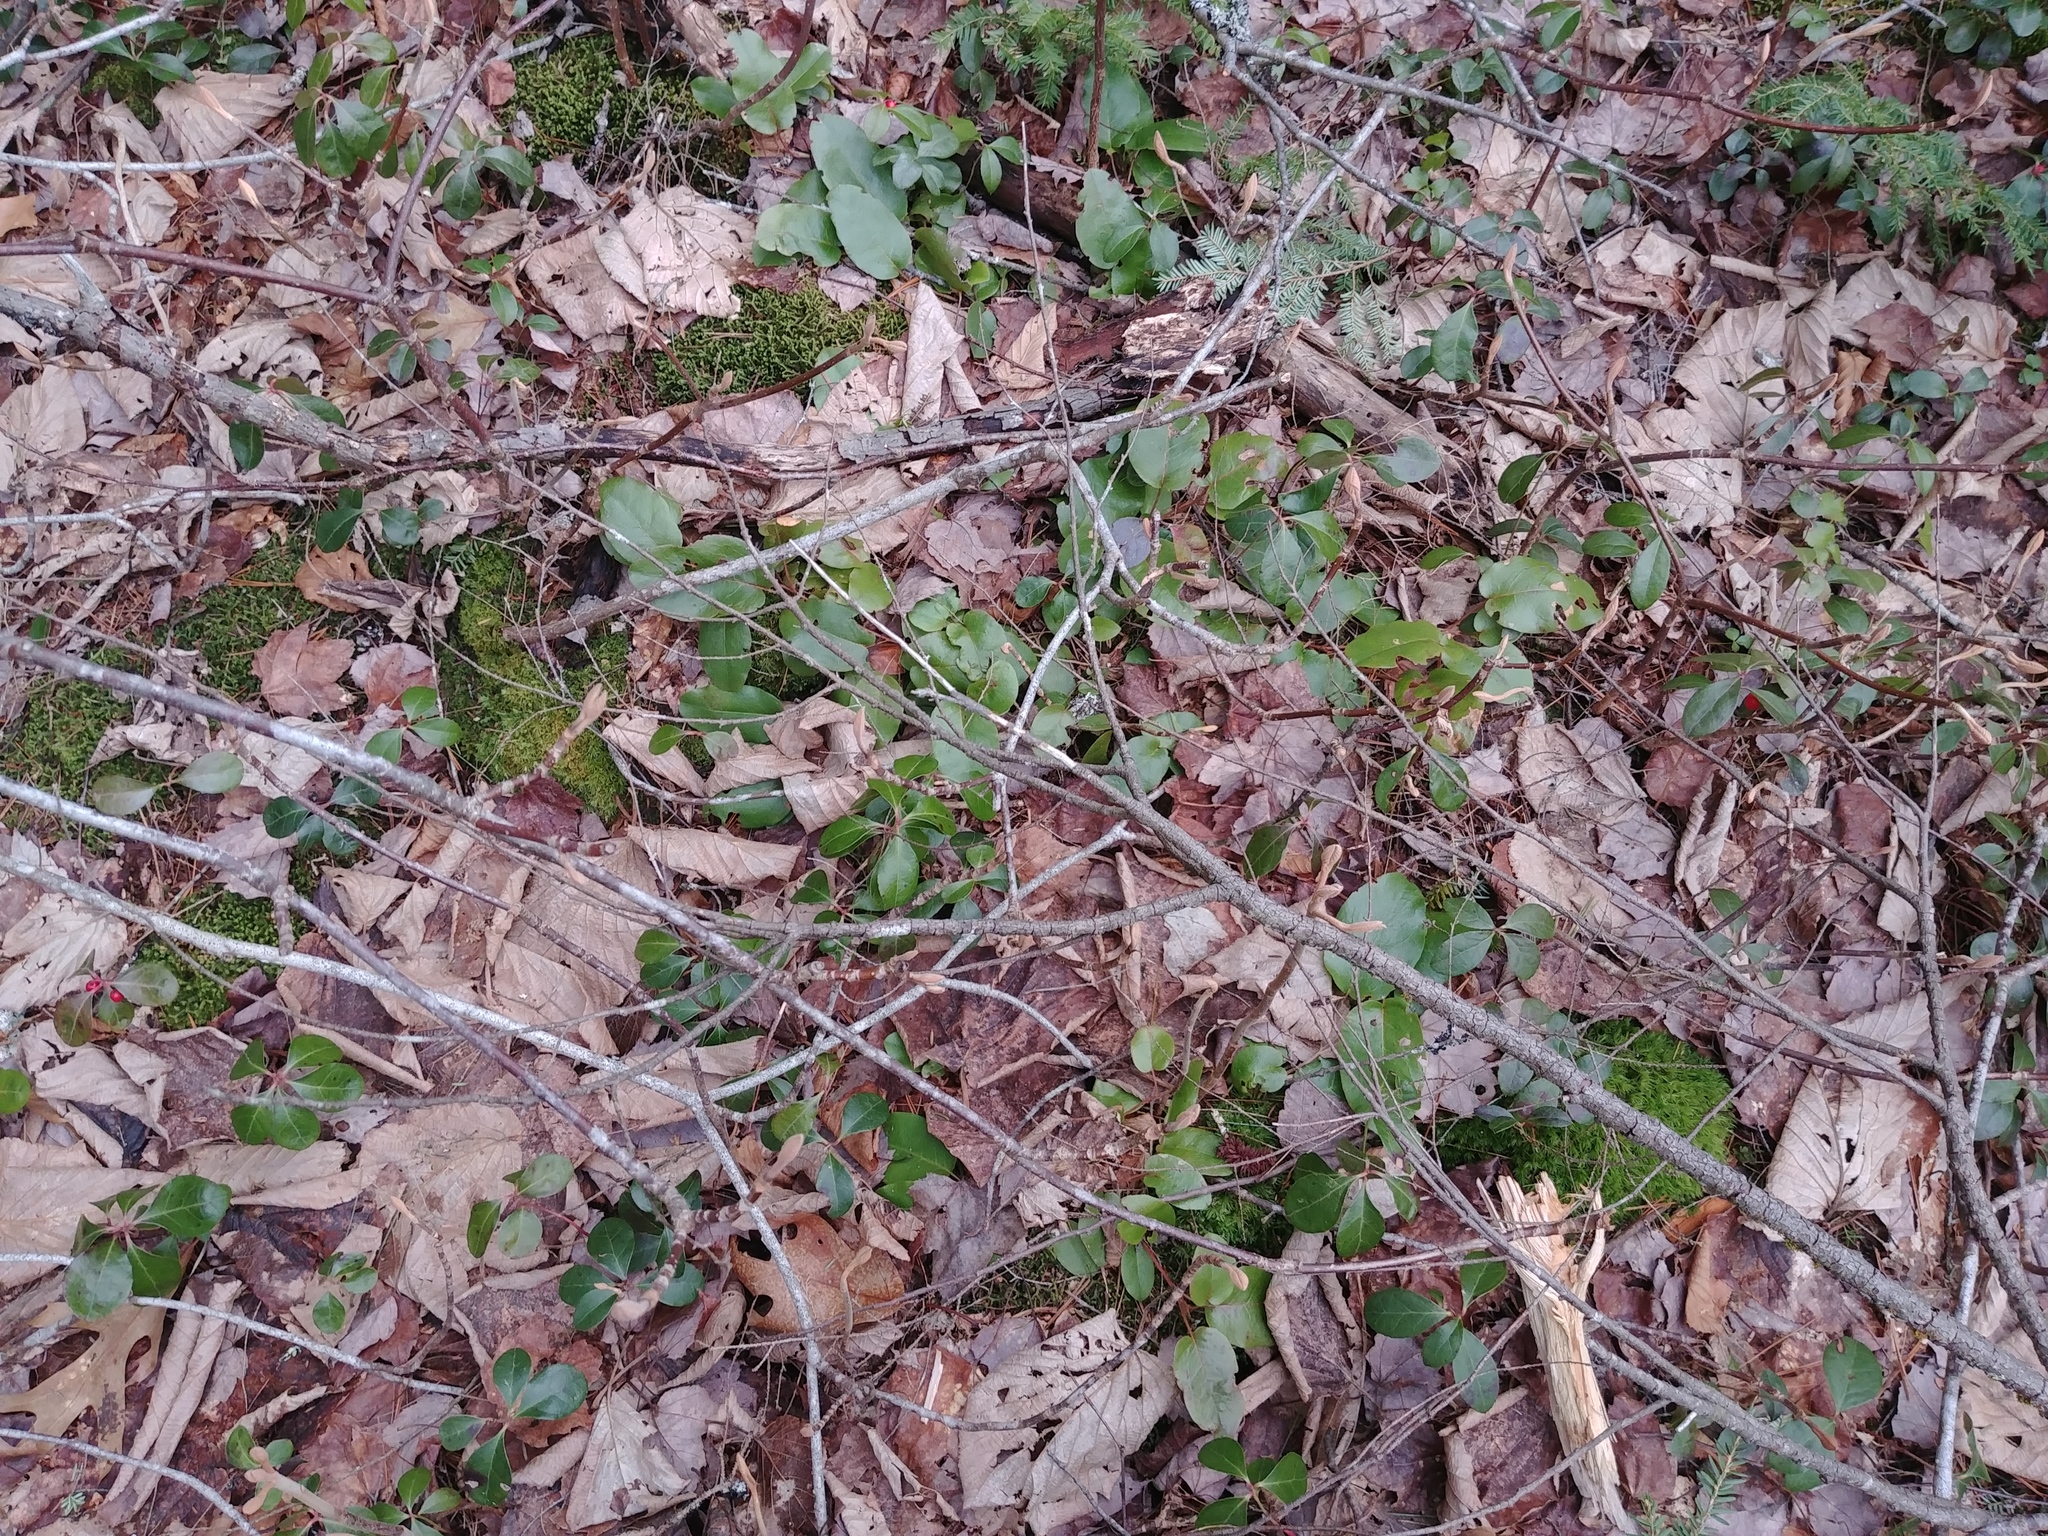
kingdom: Plantae
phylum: Tracheophyta
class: Magnoliopsida
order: Ericales
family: Ericaceae
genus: Epigaea
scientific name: Epigaea repens
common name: Gravelroot
